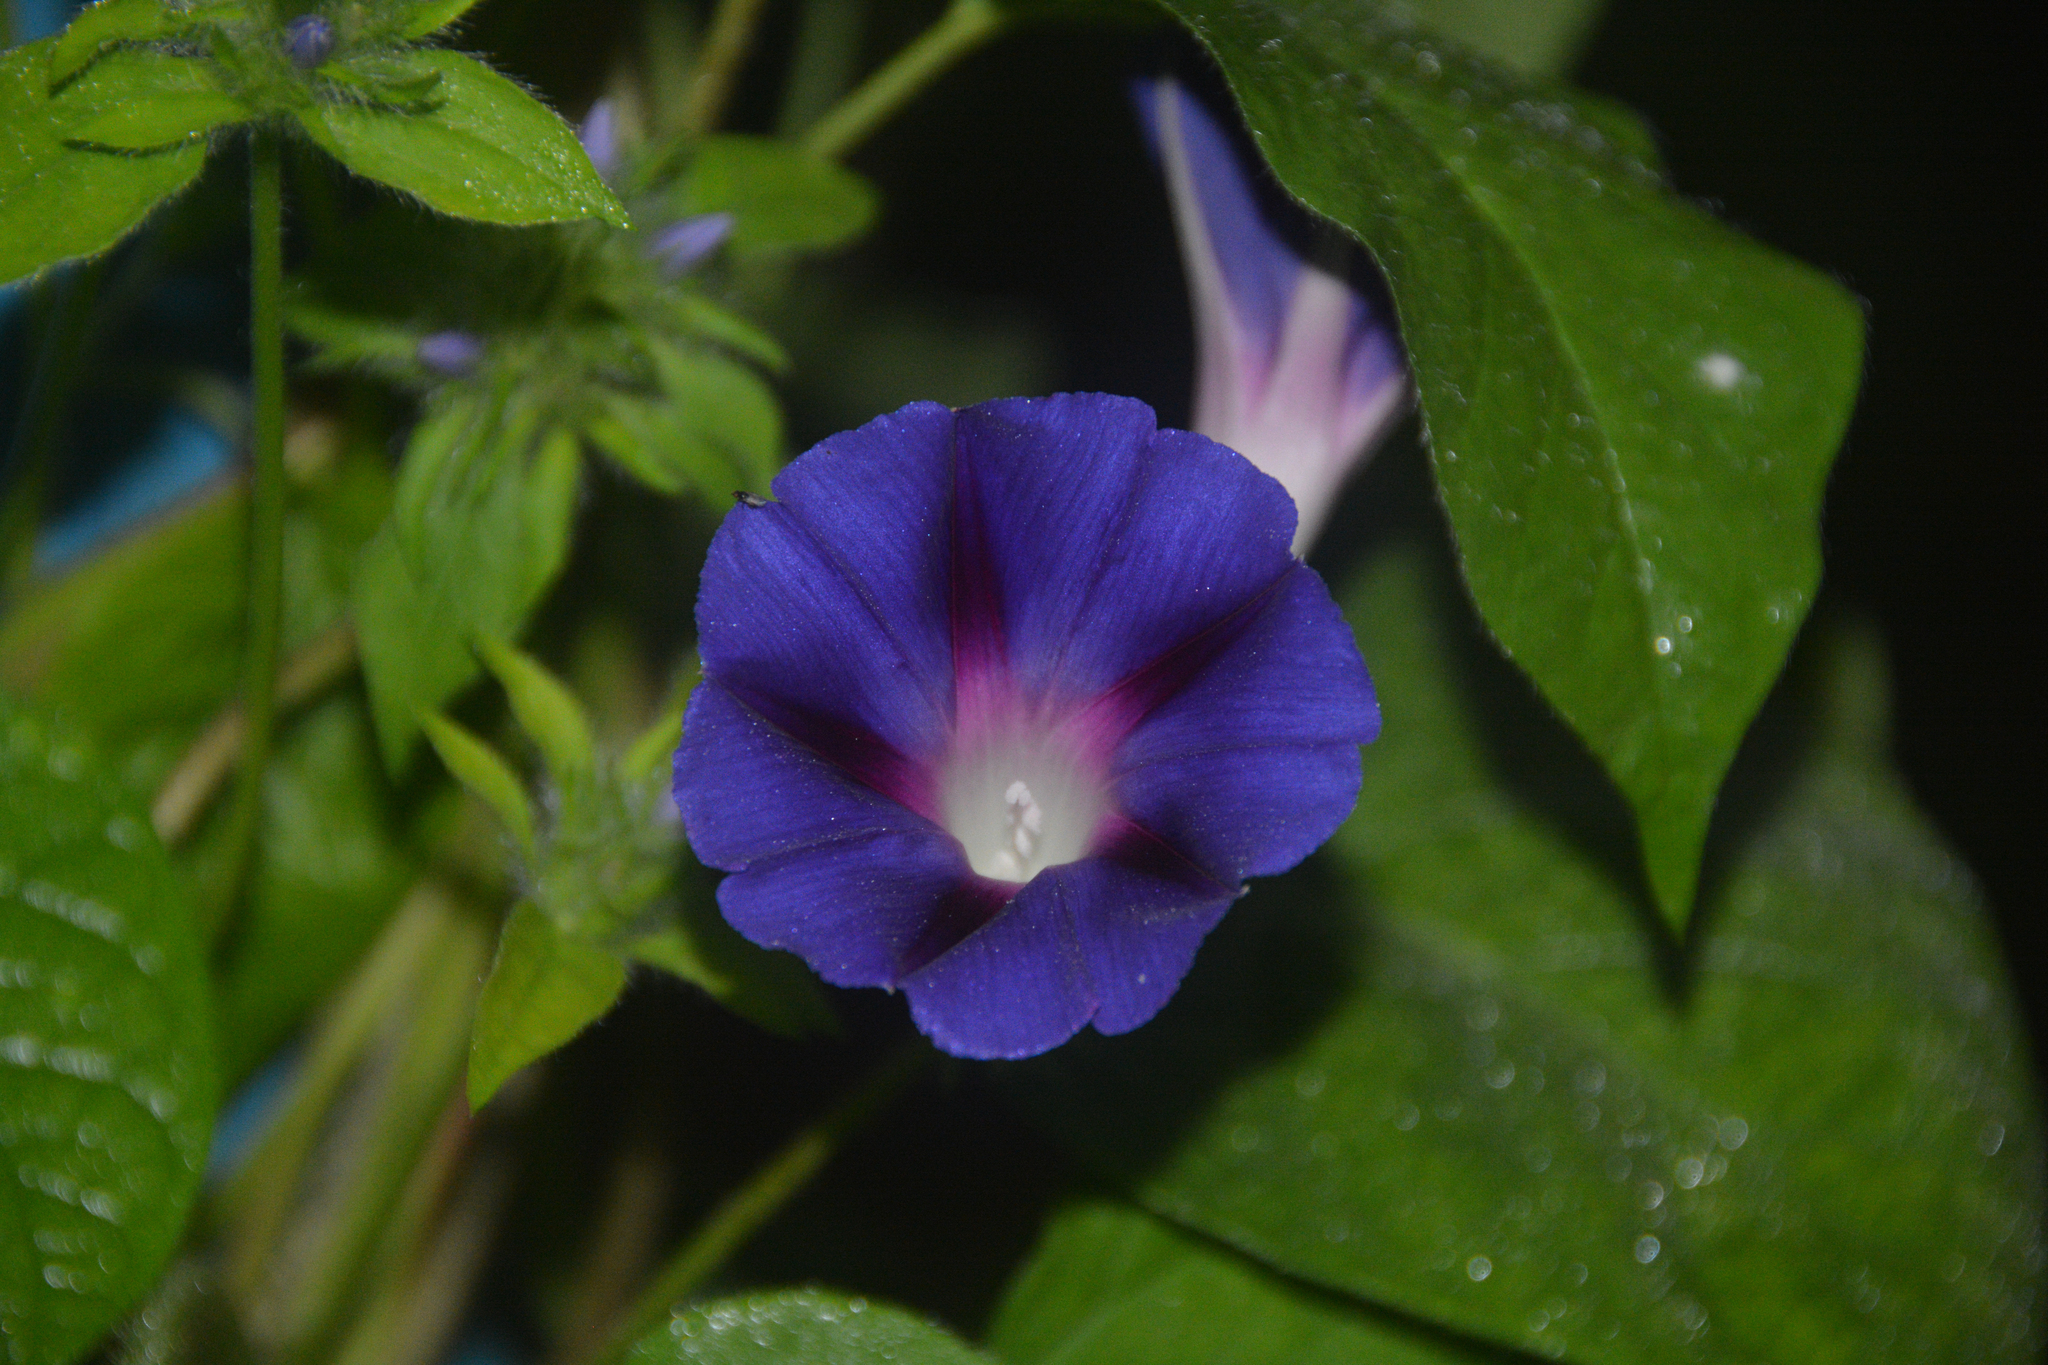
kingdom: Plantae
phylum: Tracheophyta
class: Magnoliopsida
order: Solanales
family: Convolvulaceae
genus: Ipomoea
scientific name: Ipomoea purpurea
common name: Common morning-glory
